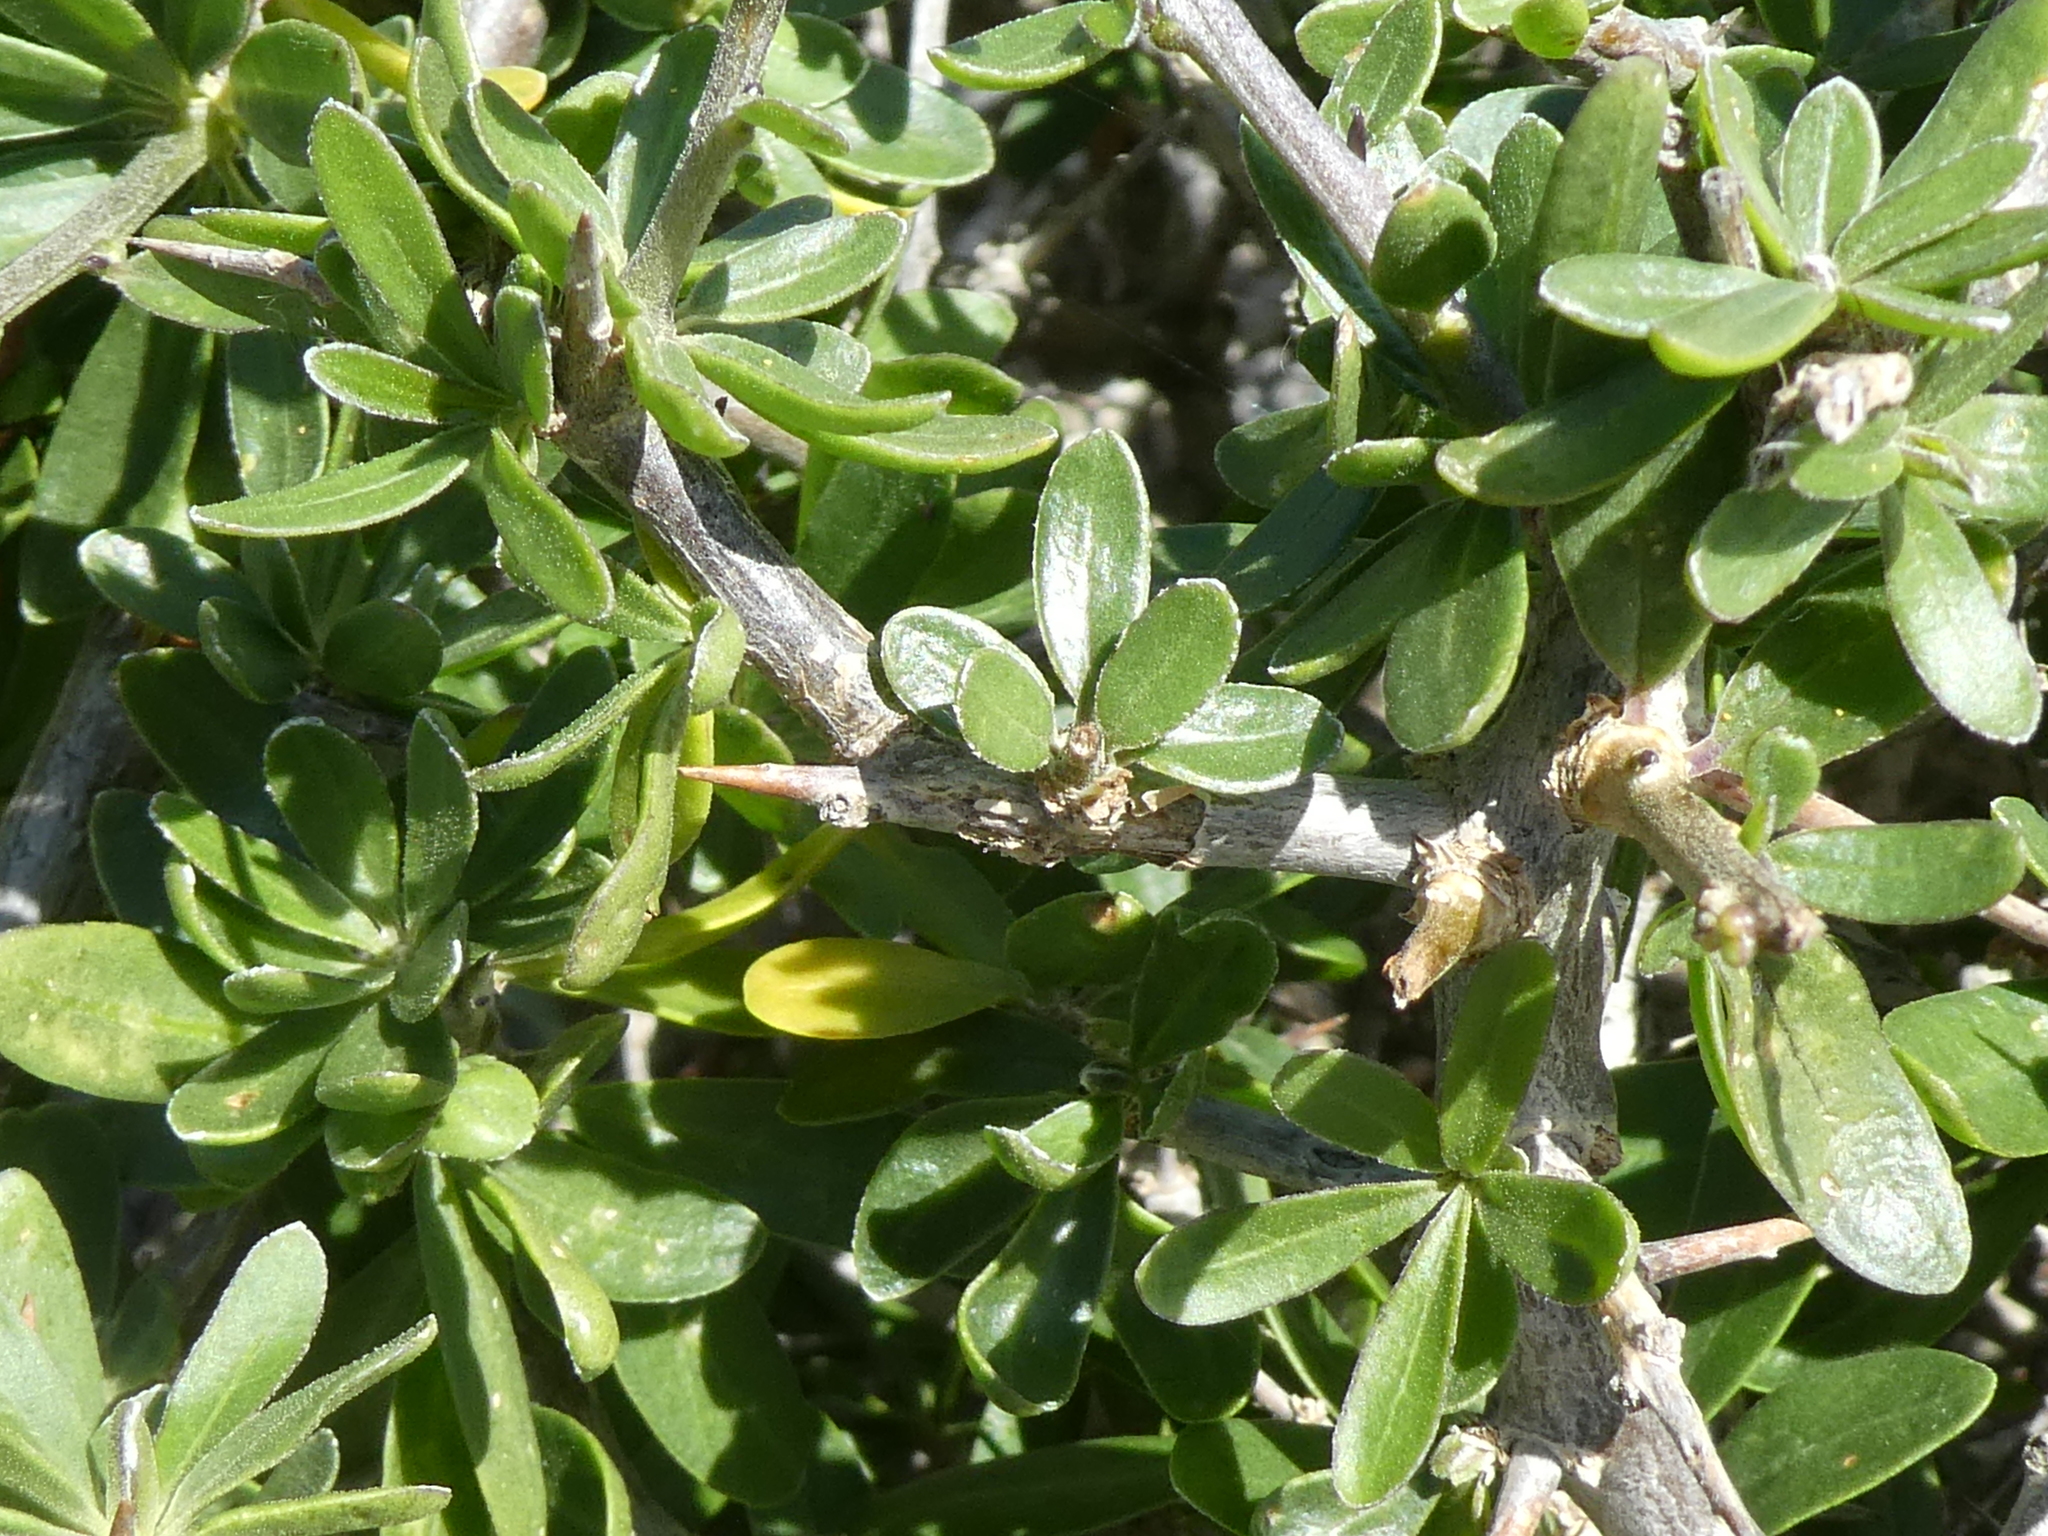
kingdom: Plantae
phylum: Tracheophyta
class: Magnoliopsida
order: Solanales
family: Solanaceae
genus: Lycium
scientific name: Lycium ferocissimum
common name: African boxthorn
